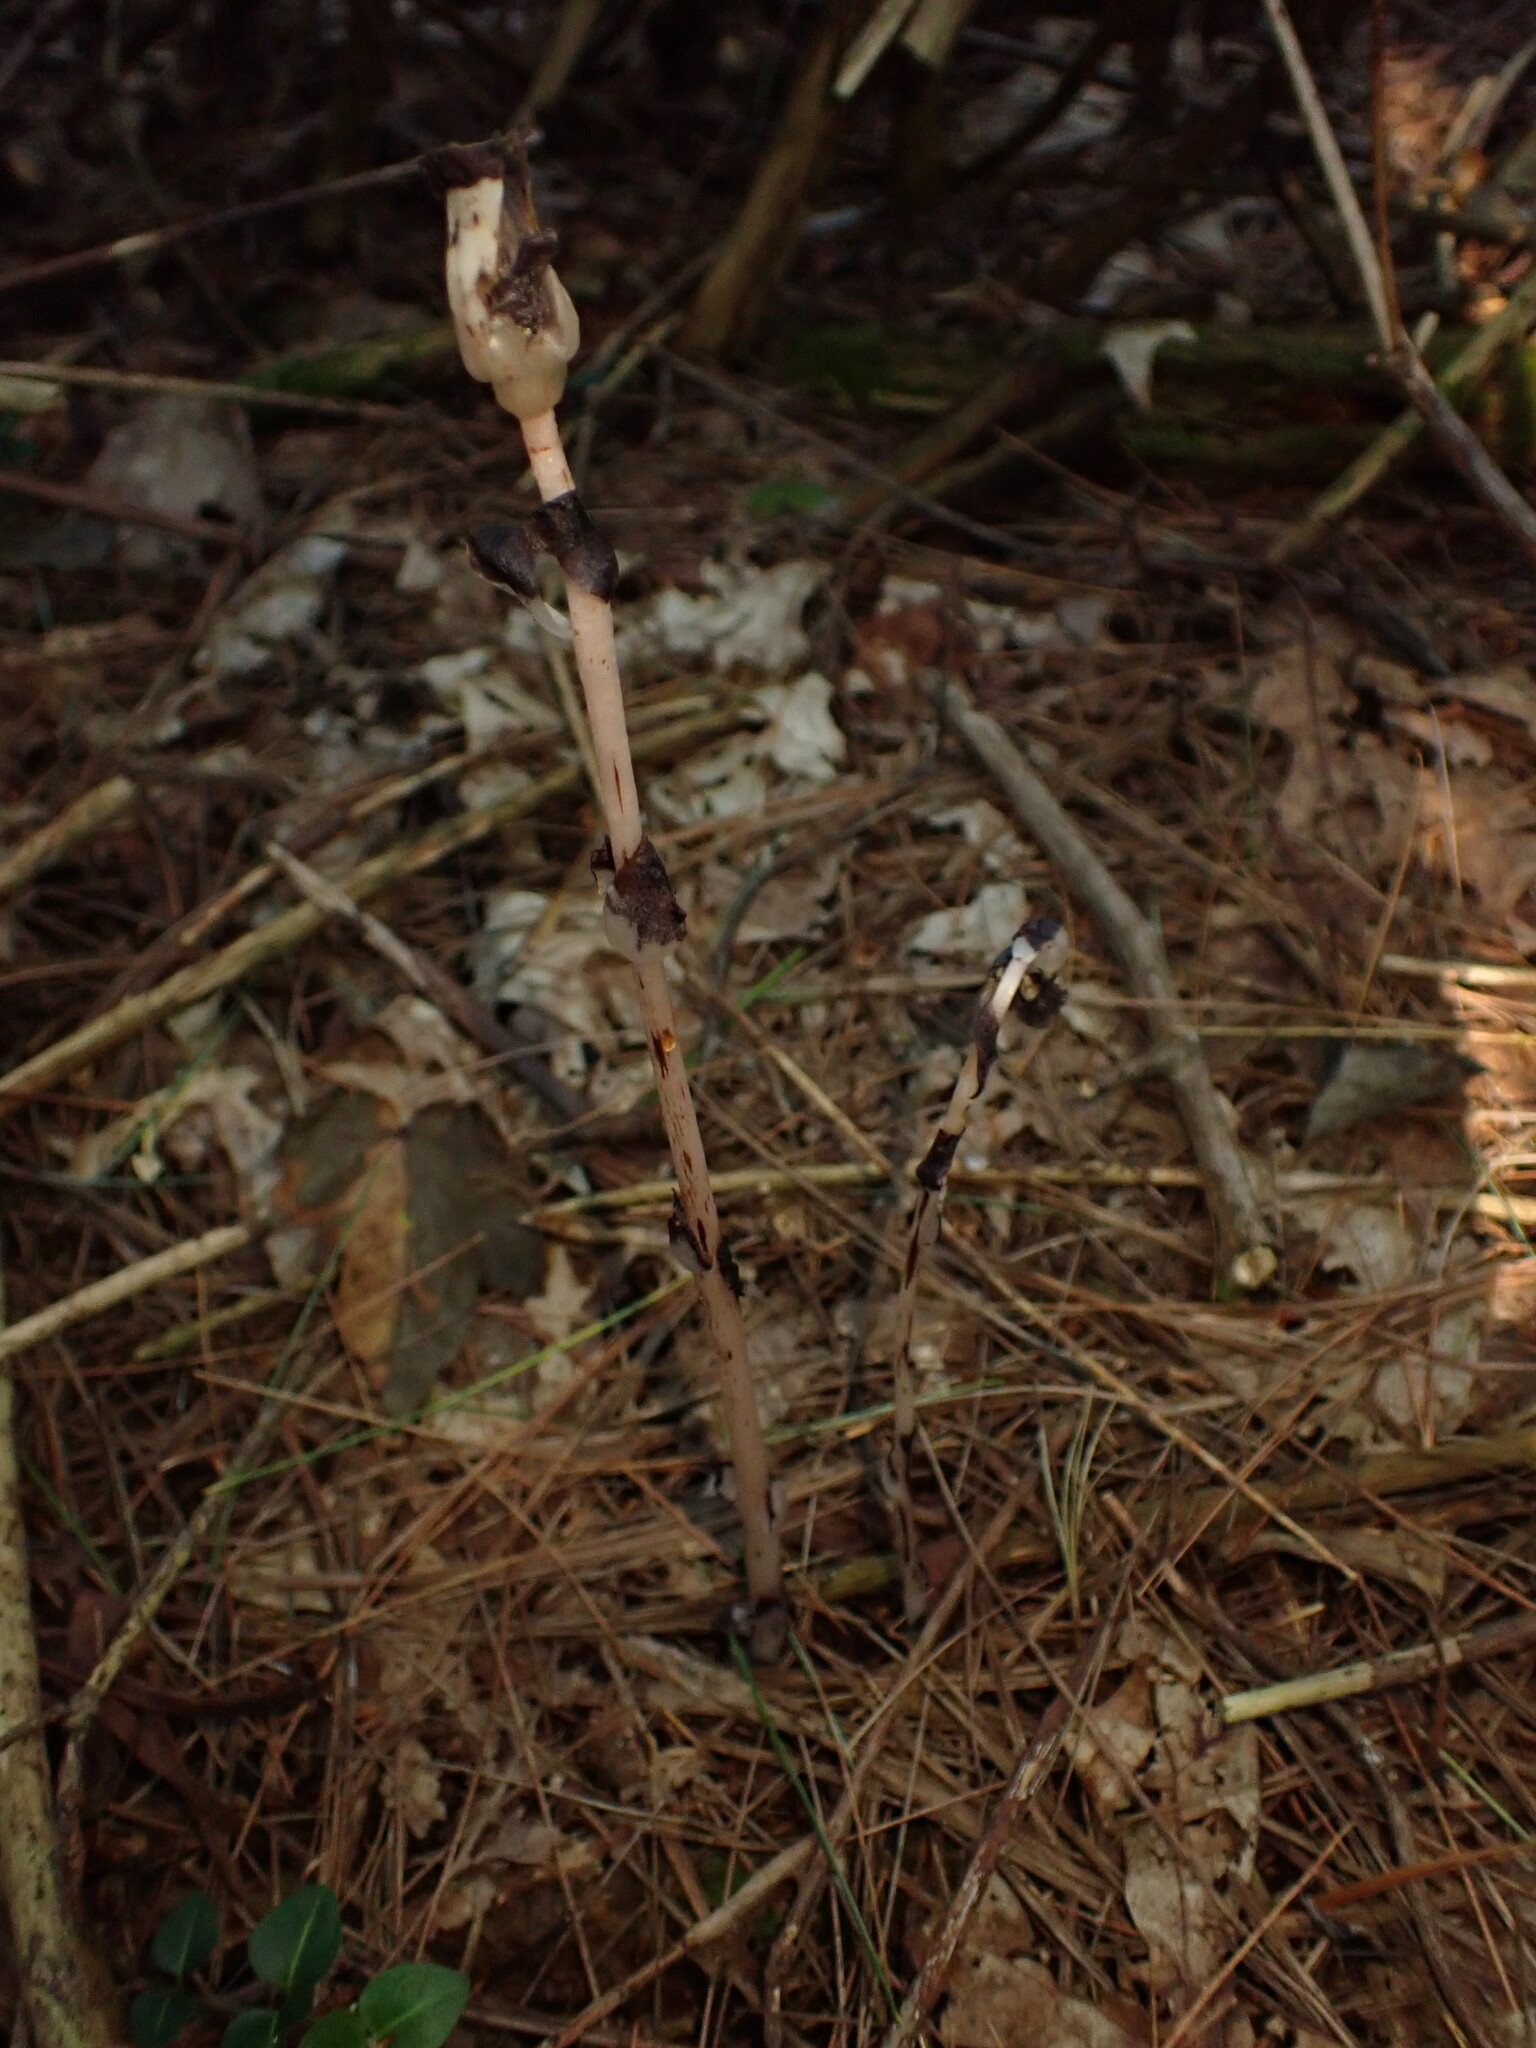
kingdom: Plantae
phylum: Tracheophyta
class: Magnoliopsida
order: Ericales
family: Ericaceae
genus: Monotropa
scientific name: Monotropa uniflora
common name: Convulsion root
